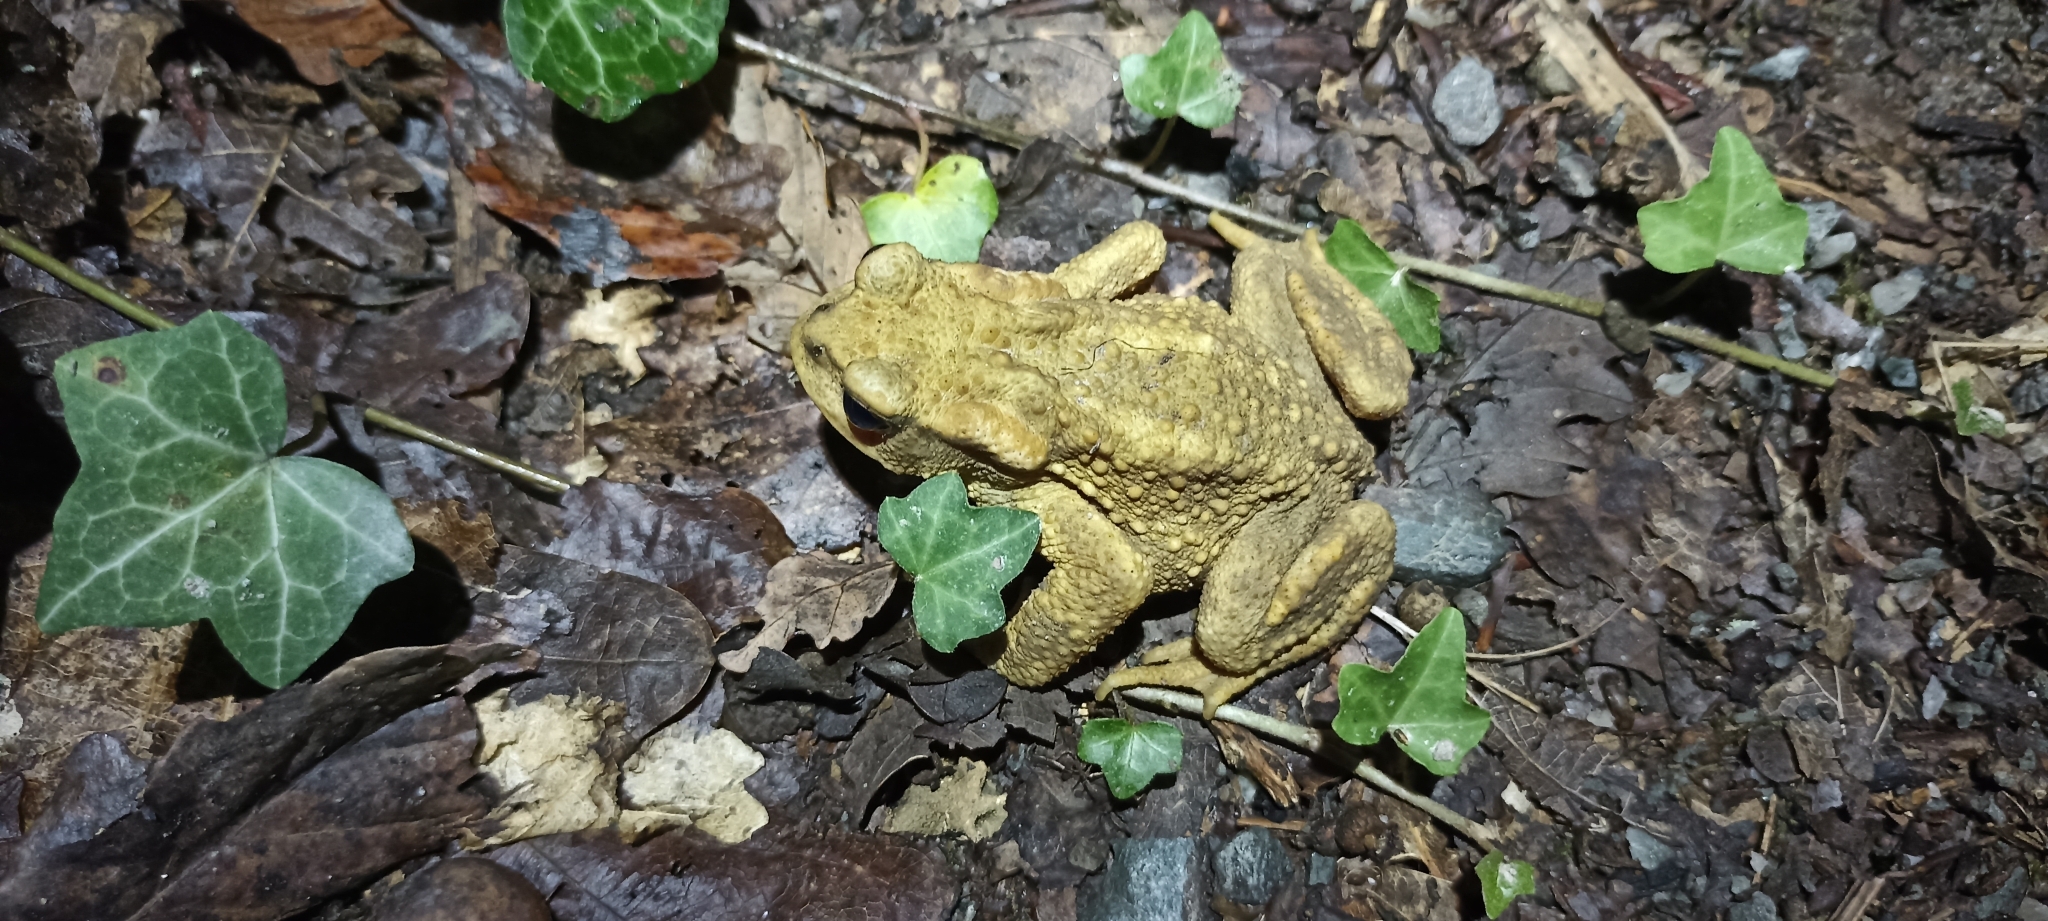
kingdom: Animalia
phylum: Chordata
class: Amphibia
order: Anura
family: Bufonidae
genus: Bufo
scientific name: Bufo spinosus
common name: Western common toad
